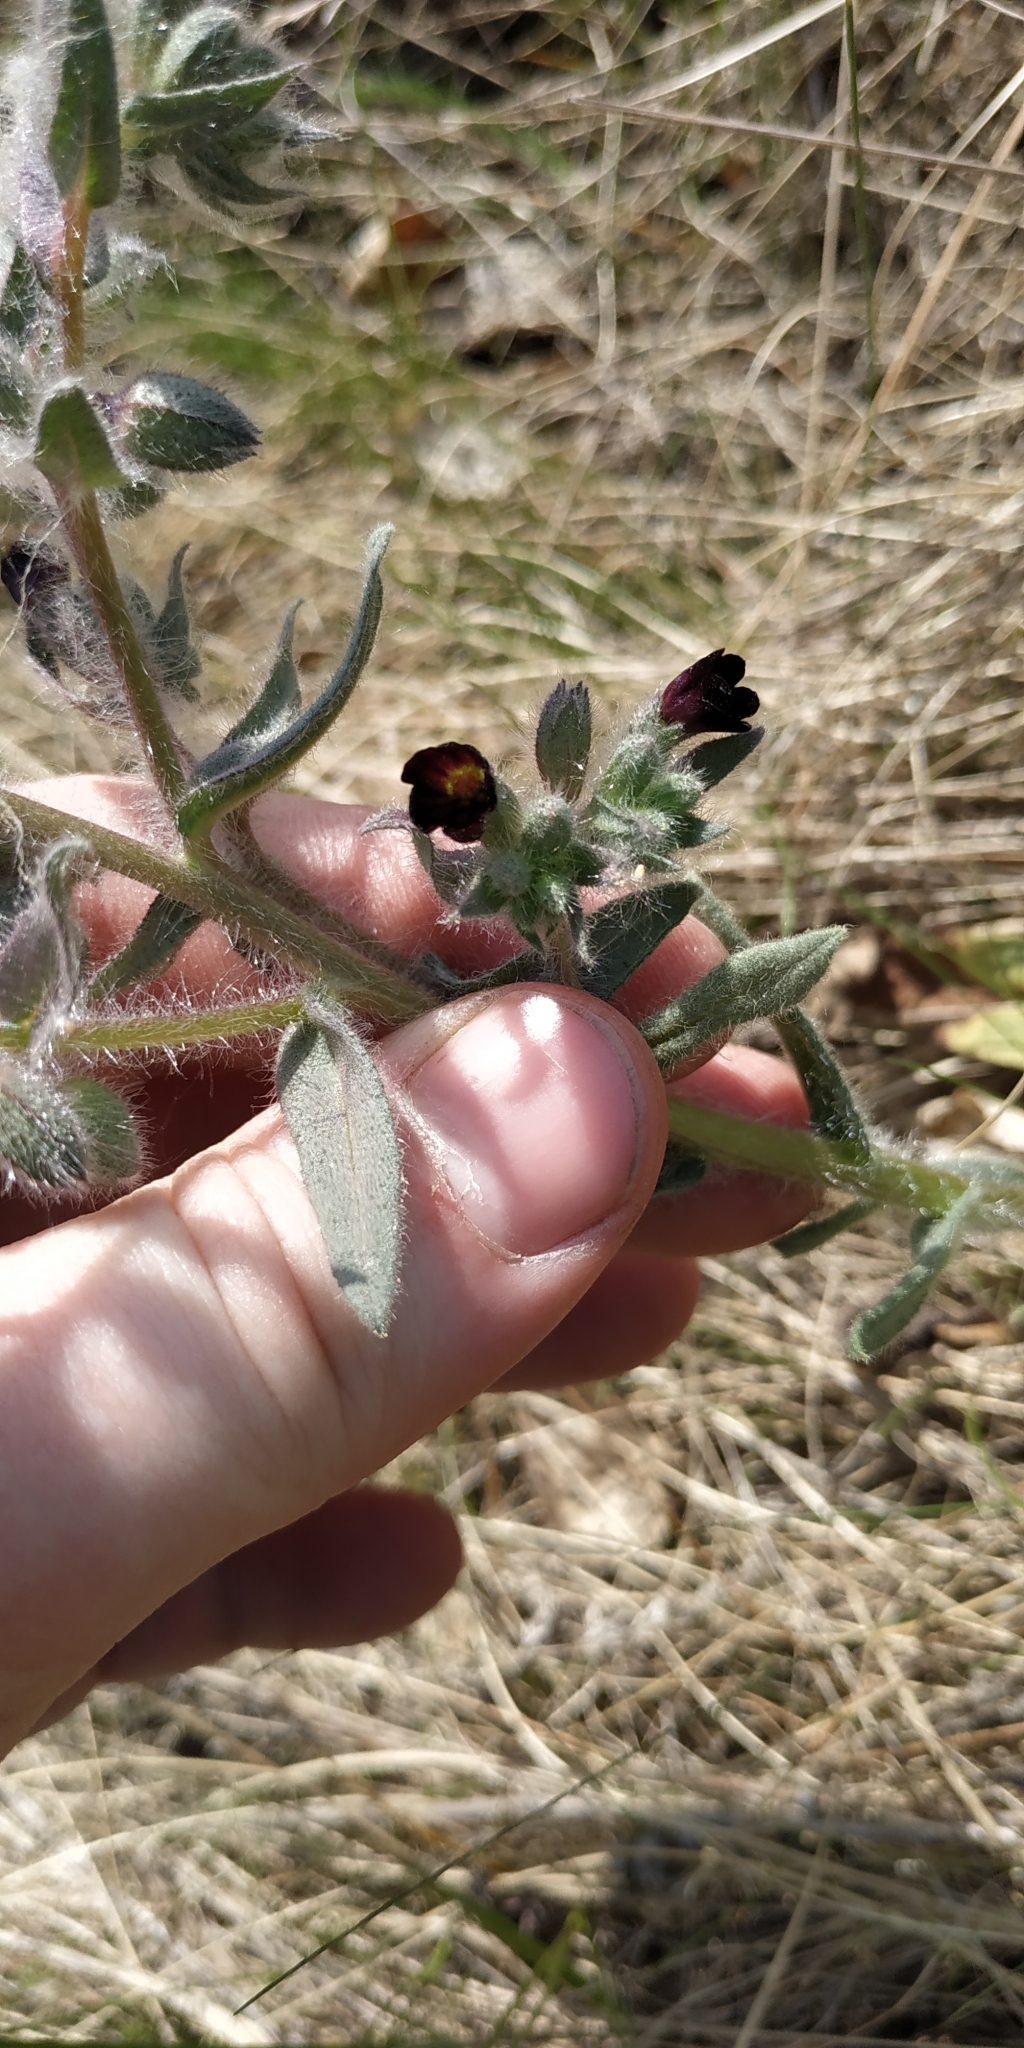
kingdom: Plantae
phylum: Tracheophyta
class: Magnoliopsida
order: Boraginales
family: Boraginaceae
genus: Nonea
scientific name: Nonea pulla
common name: Brown nonea
